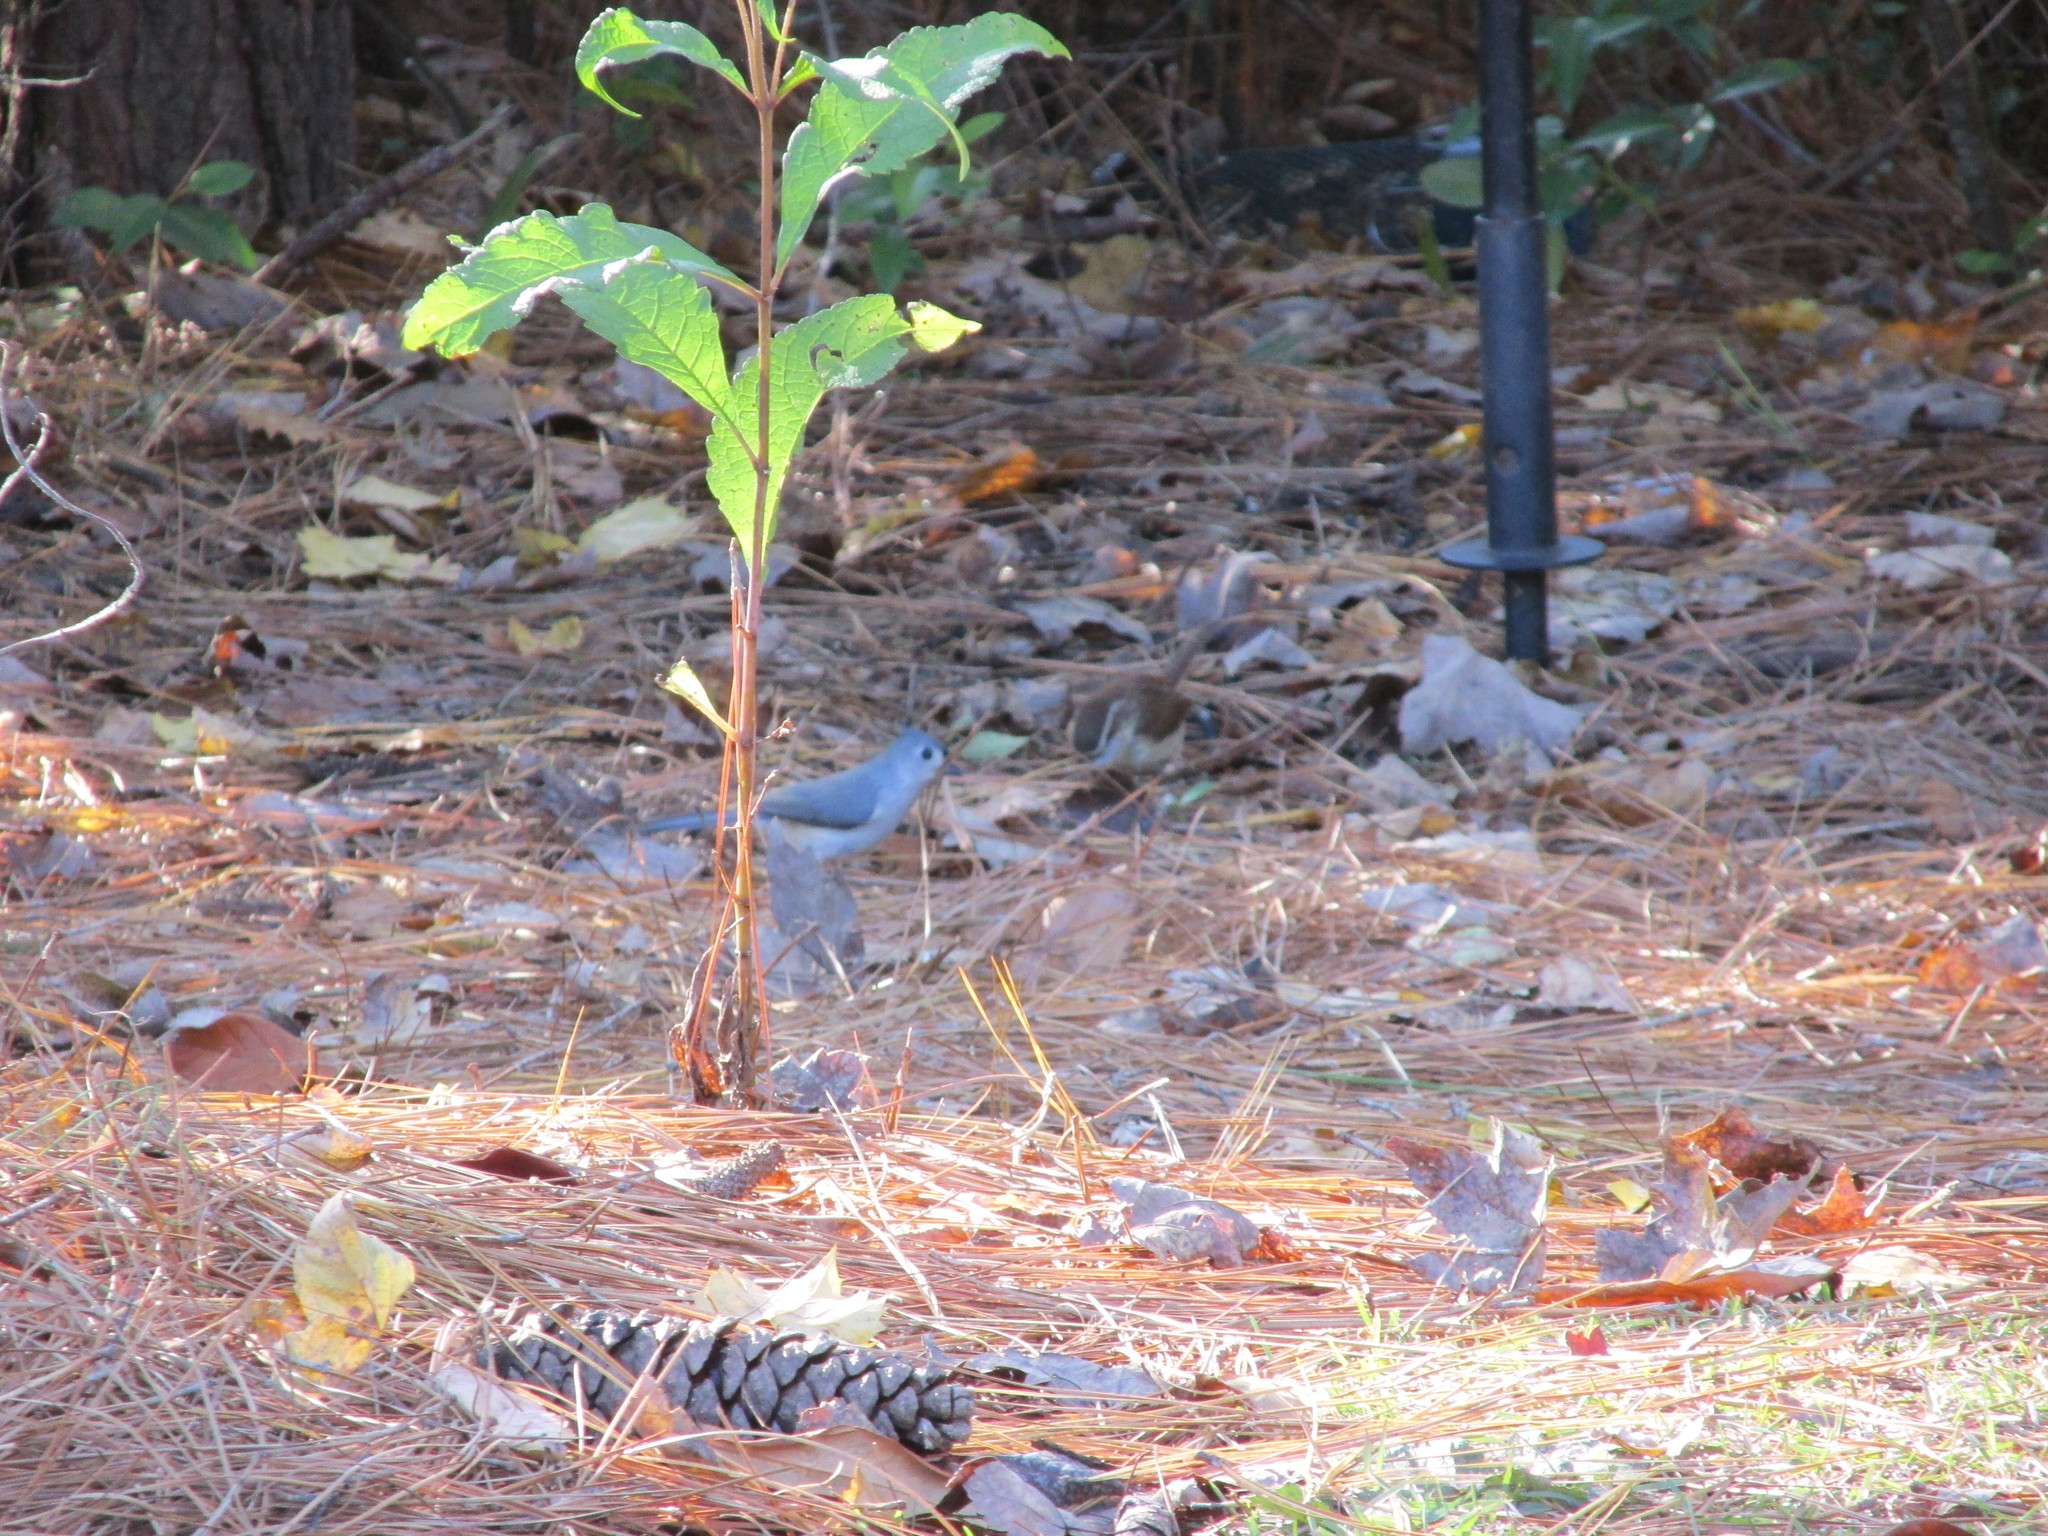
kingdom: Animalia
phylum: Chordata
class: Aves
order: Passeriformes
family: Paridae
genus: Baeolophus
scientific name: Baeolophus bicolor
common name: Tufted titmouse
